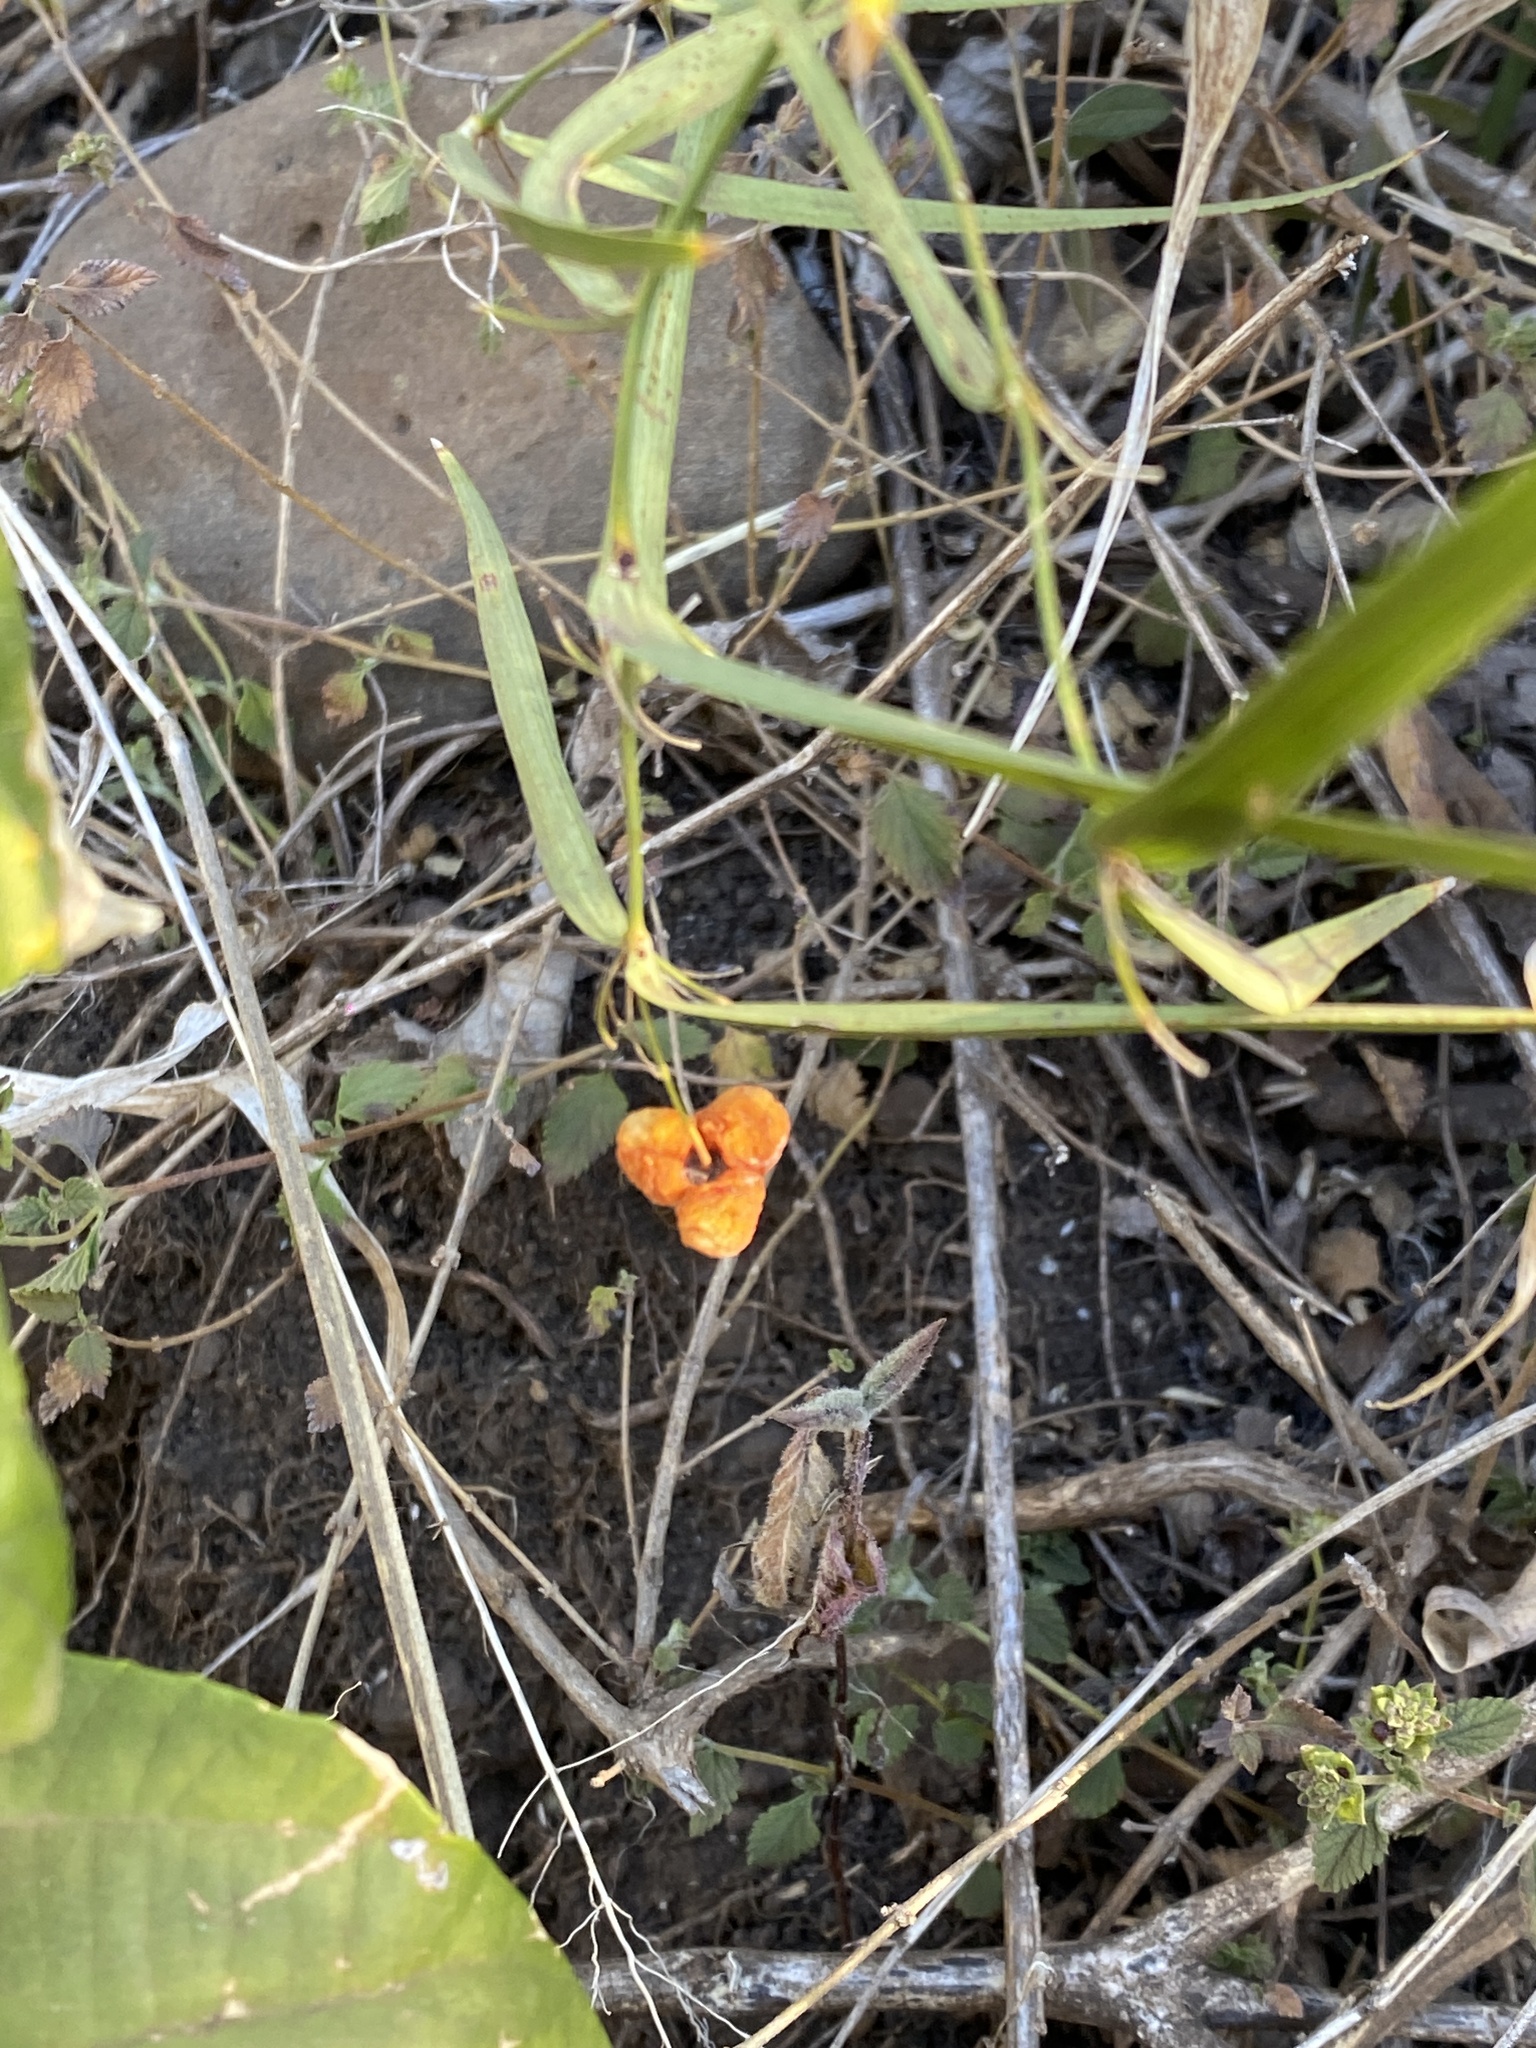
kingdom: Plantae
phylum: Tracheophyta
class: Liliopsida
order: Asparagales
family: Asparagaceae
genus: Eustrephus
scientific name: Eustrephus latifolius
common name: Orangevine
